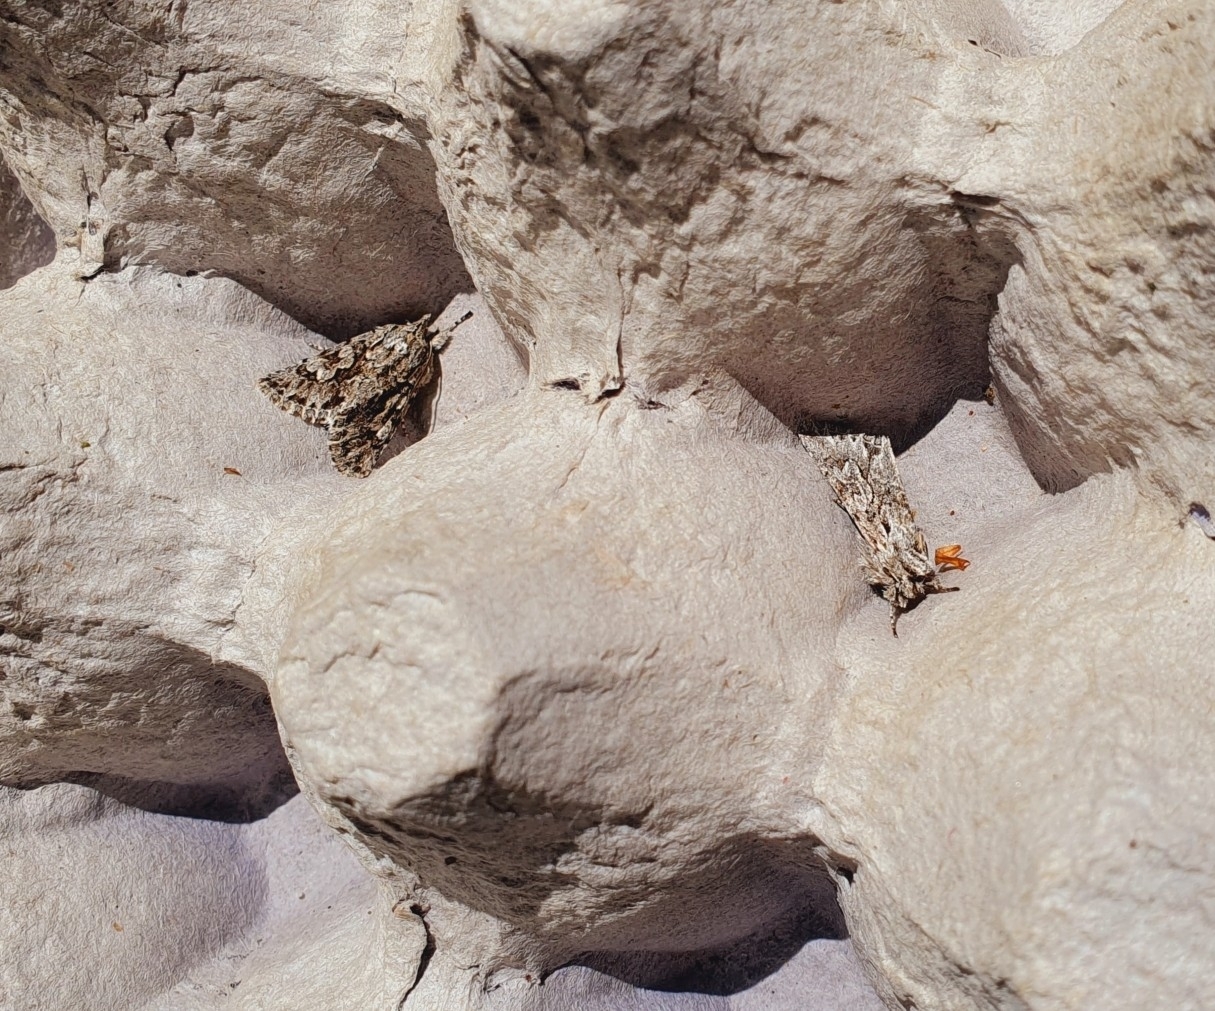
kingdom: Animalia
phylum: Arthropoda
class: Insecta
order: Lepidoptera
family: Noctuidae
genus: Xylocampa
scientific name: Xylocampa areola
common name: Early grey
